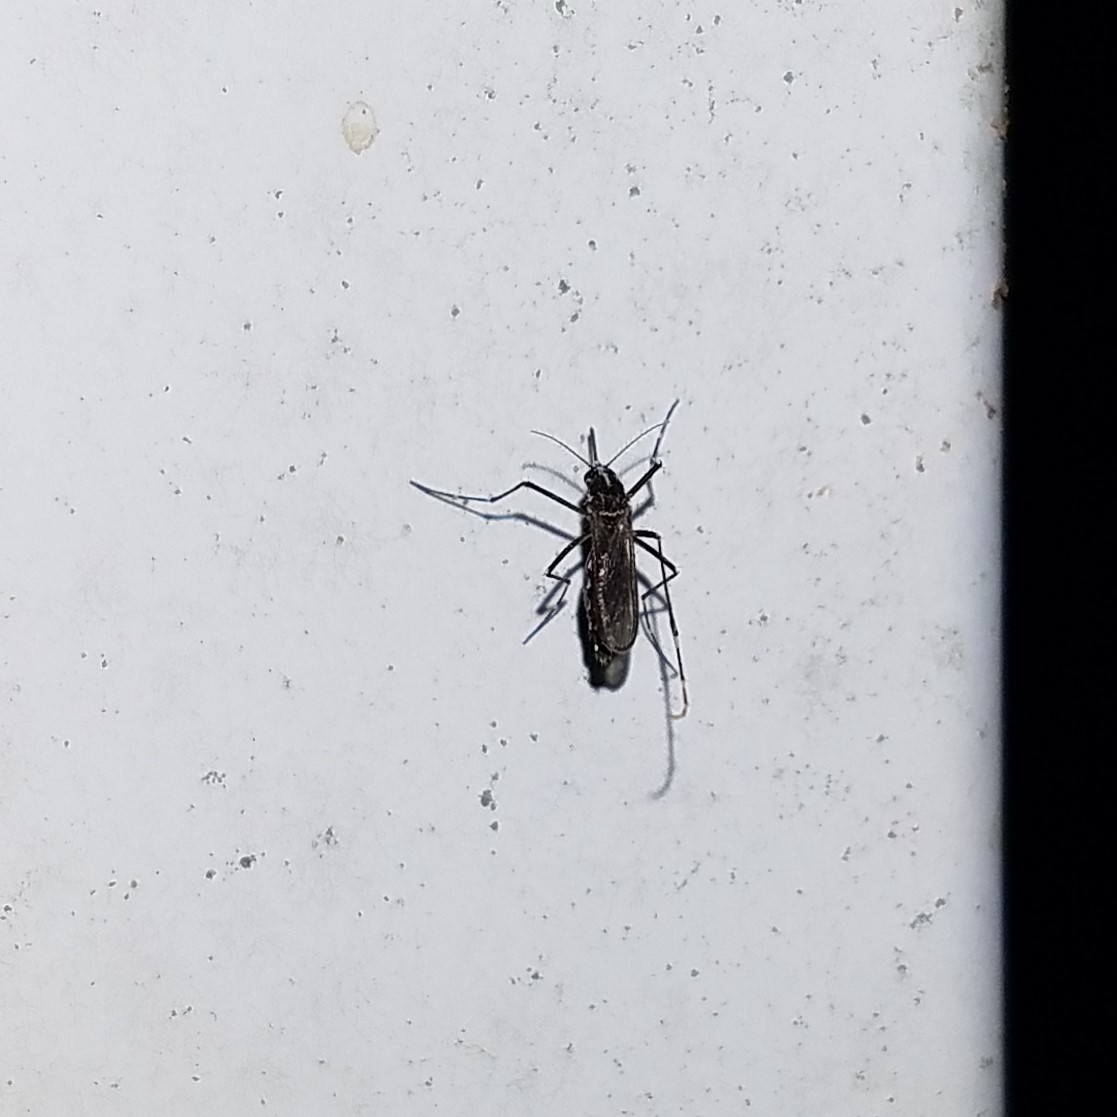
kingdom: Animalia
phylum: Arthropoda
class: Insecta
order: Diptera
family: Culicidae
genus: Aedes
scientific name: Aedes albopictus
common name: Tiger mosquito
